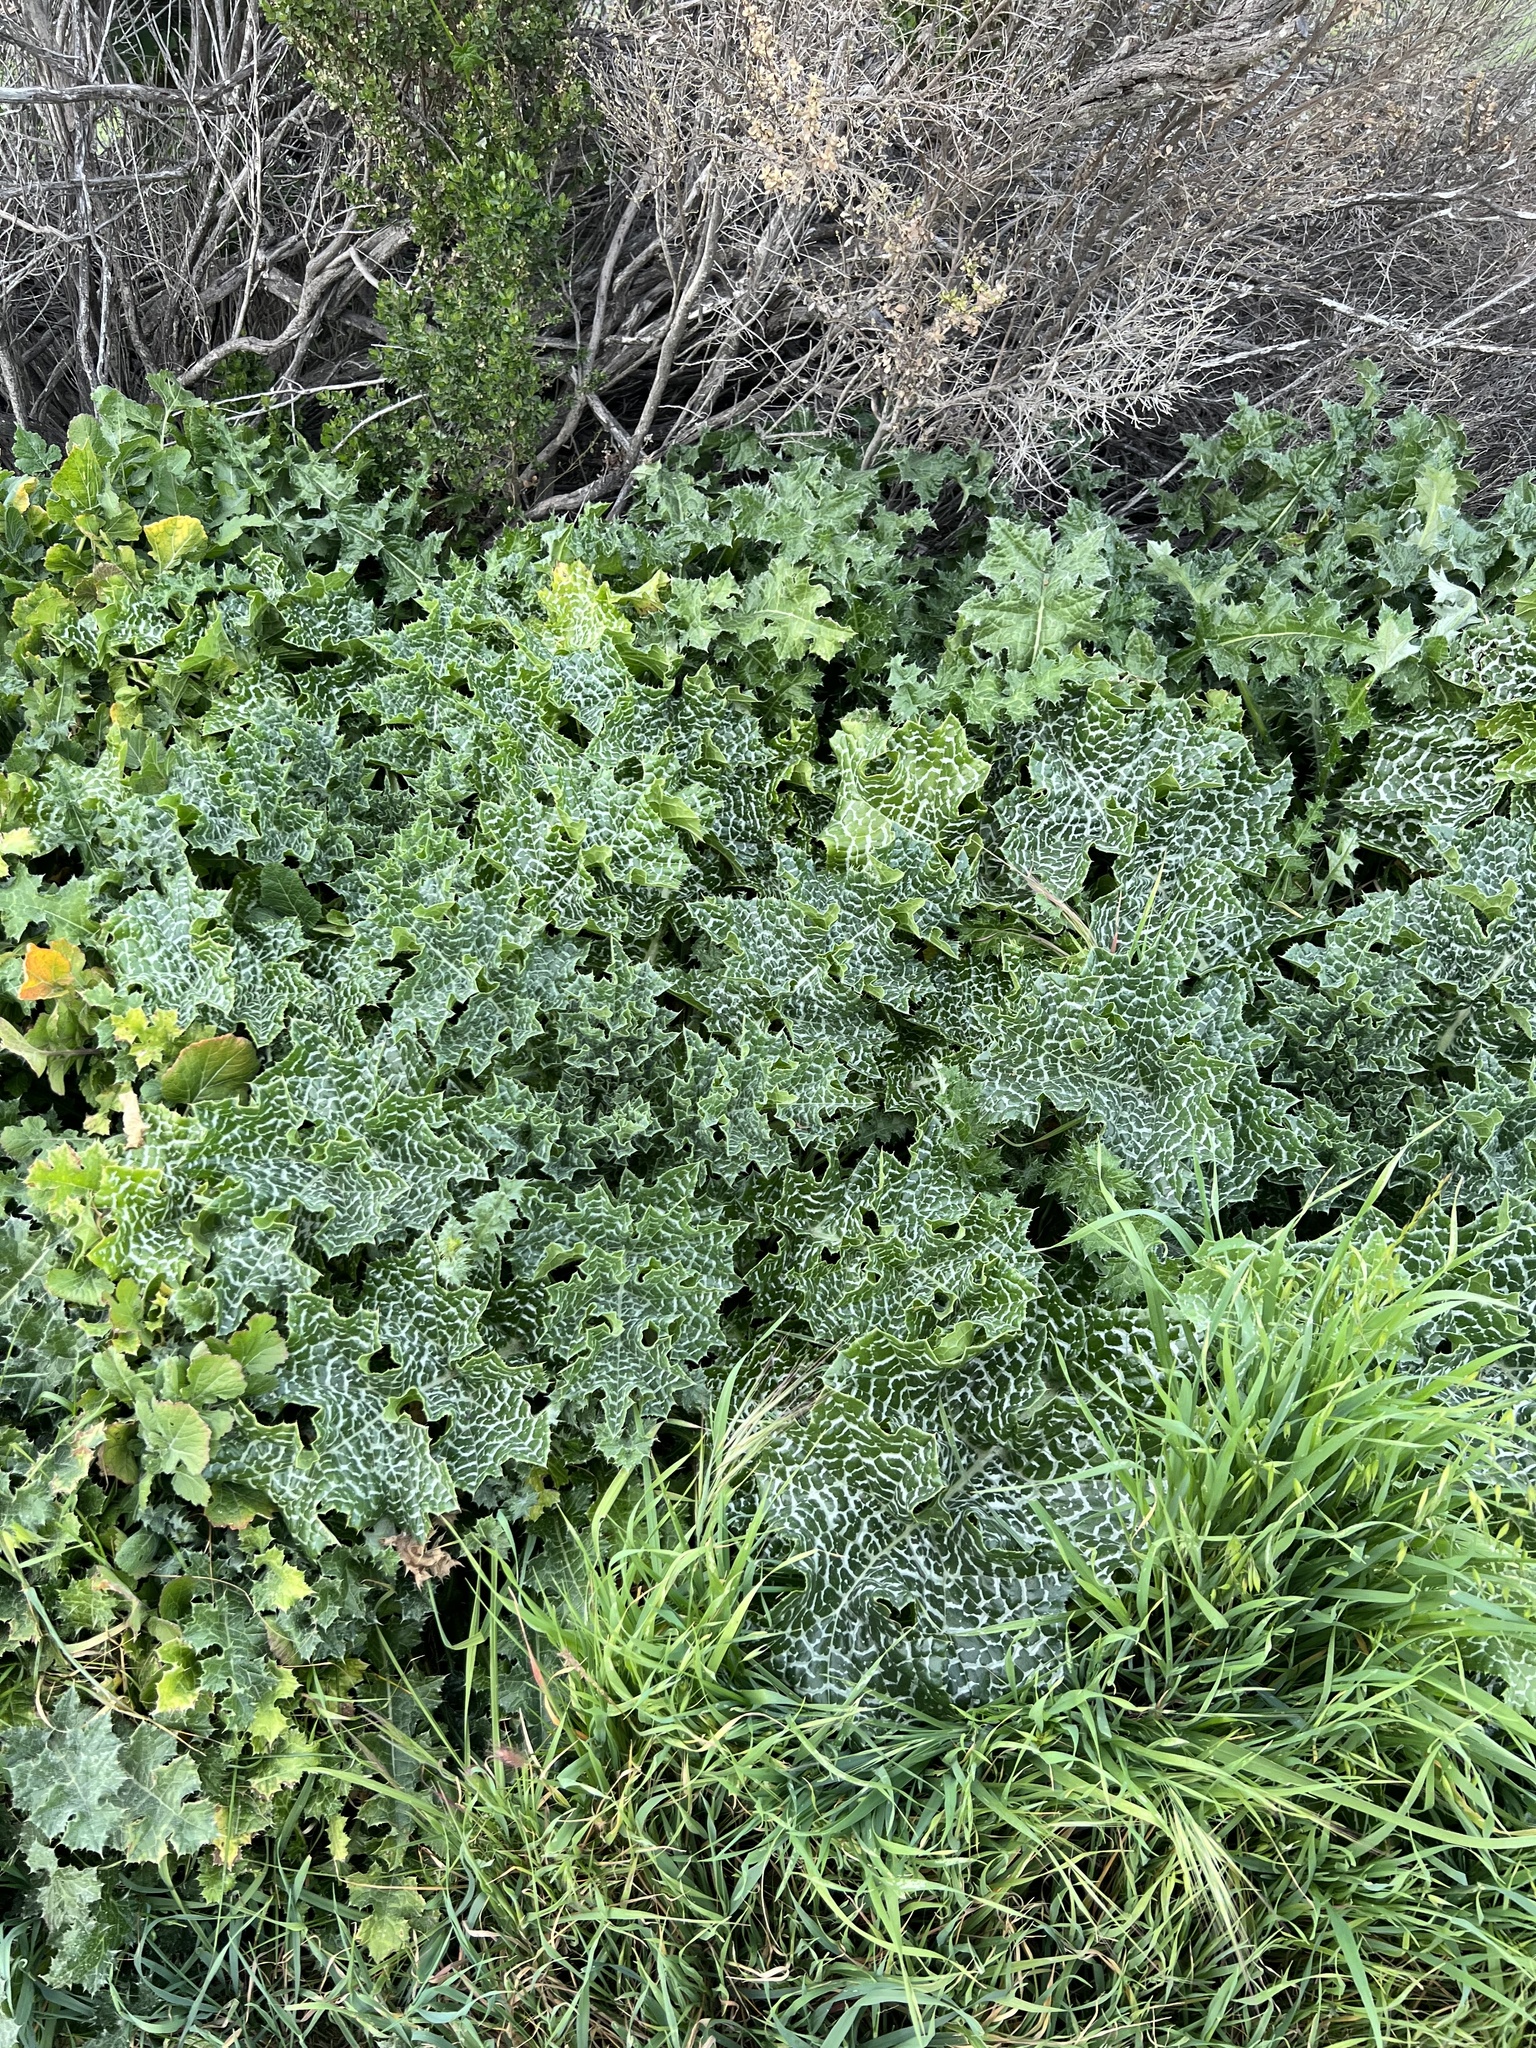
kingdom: Plantae
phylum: Tracheophyta
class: Magnoliopsida
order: Asterales
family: Asteraceae
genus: Silybum
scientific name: Silybum marianum
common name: Milk thistle
